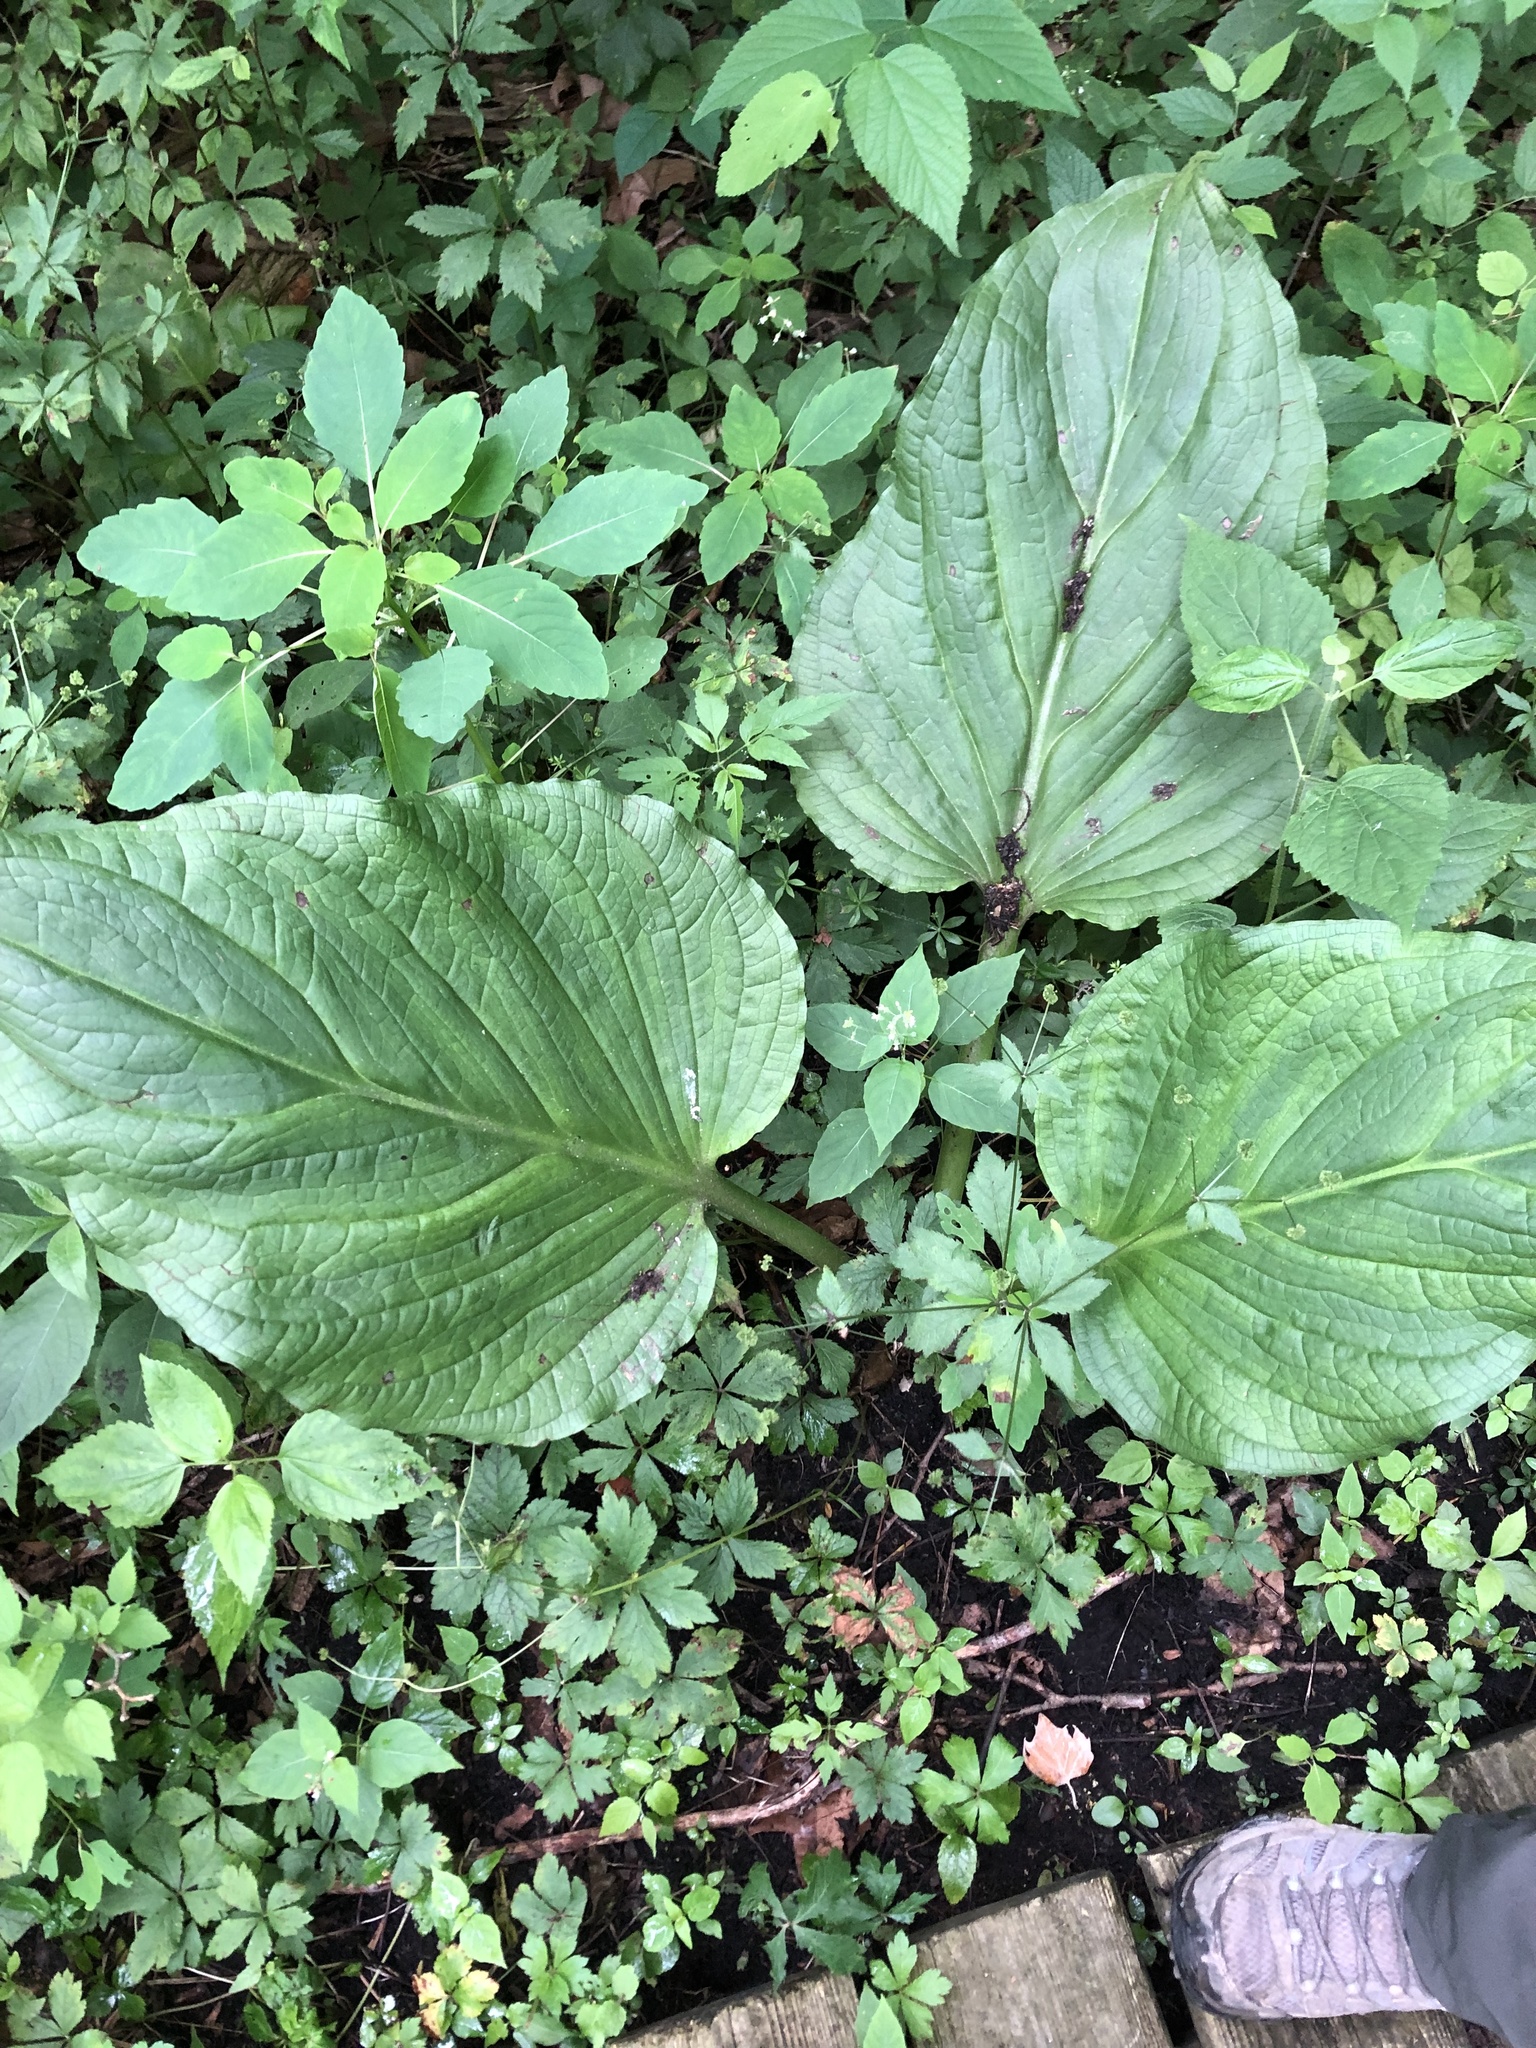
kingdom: Plantae
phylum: Tracheophyta
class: Liliopsida
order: Alismatales
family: Araceae
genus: Symplocarpus
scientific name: Symplocarpus foetidus
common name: Eastern skunk cabbage
